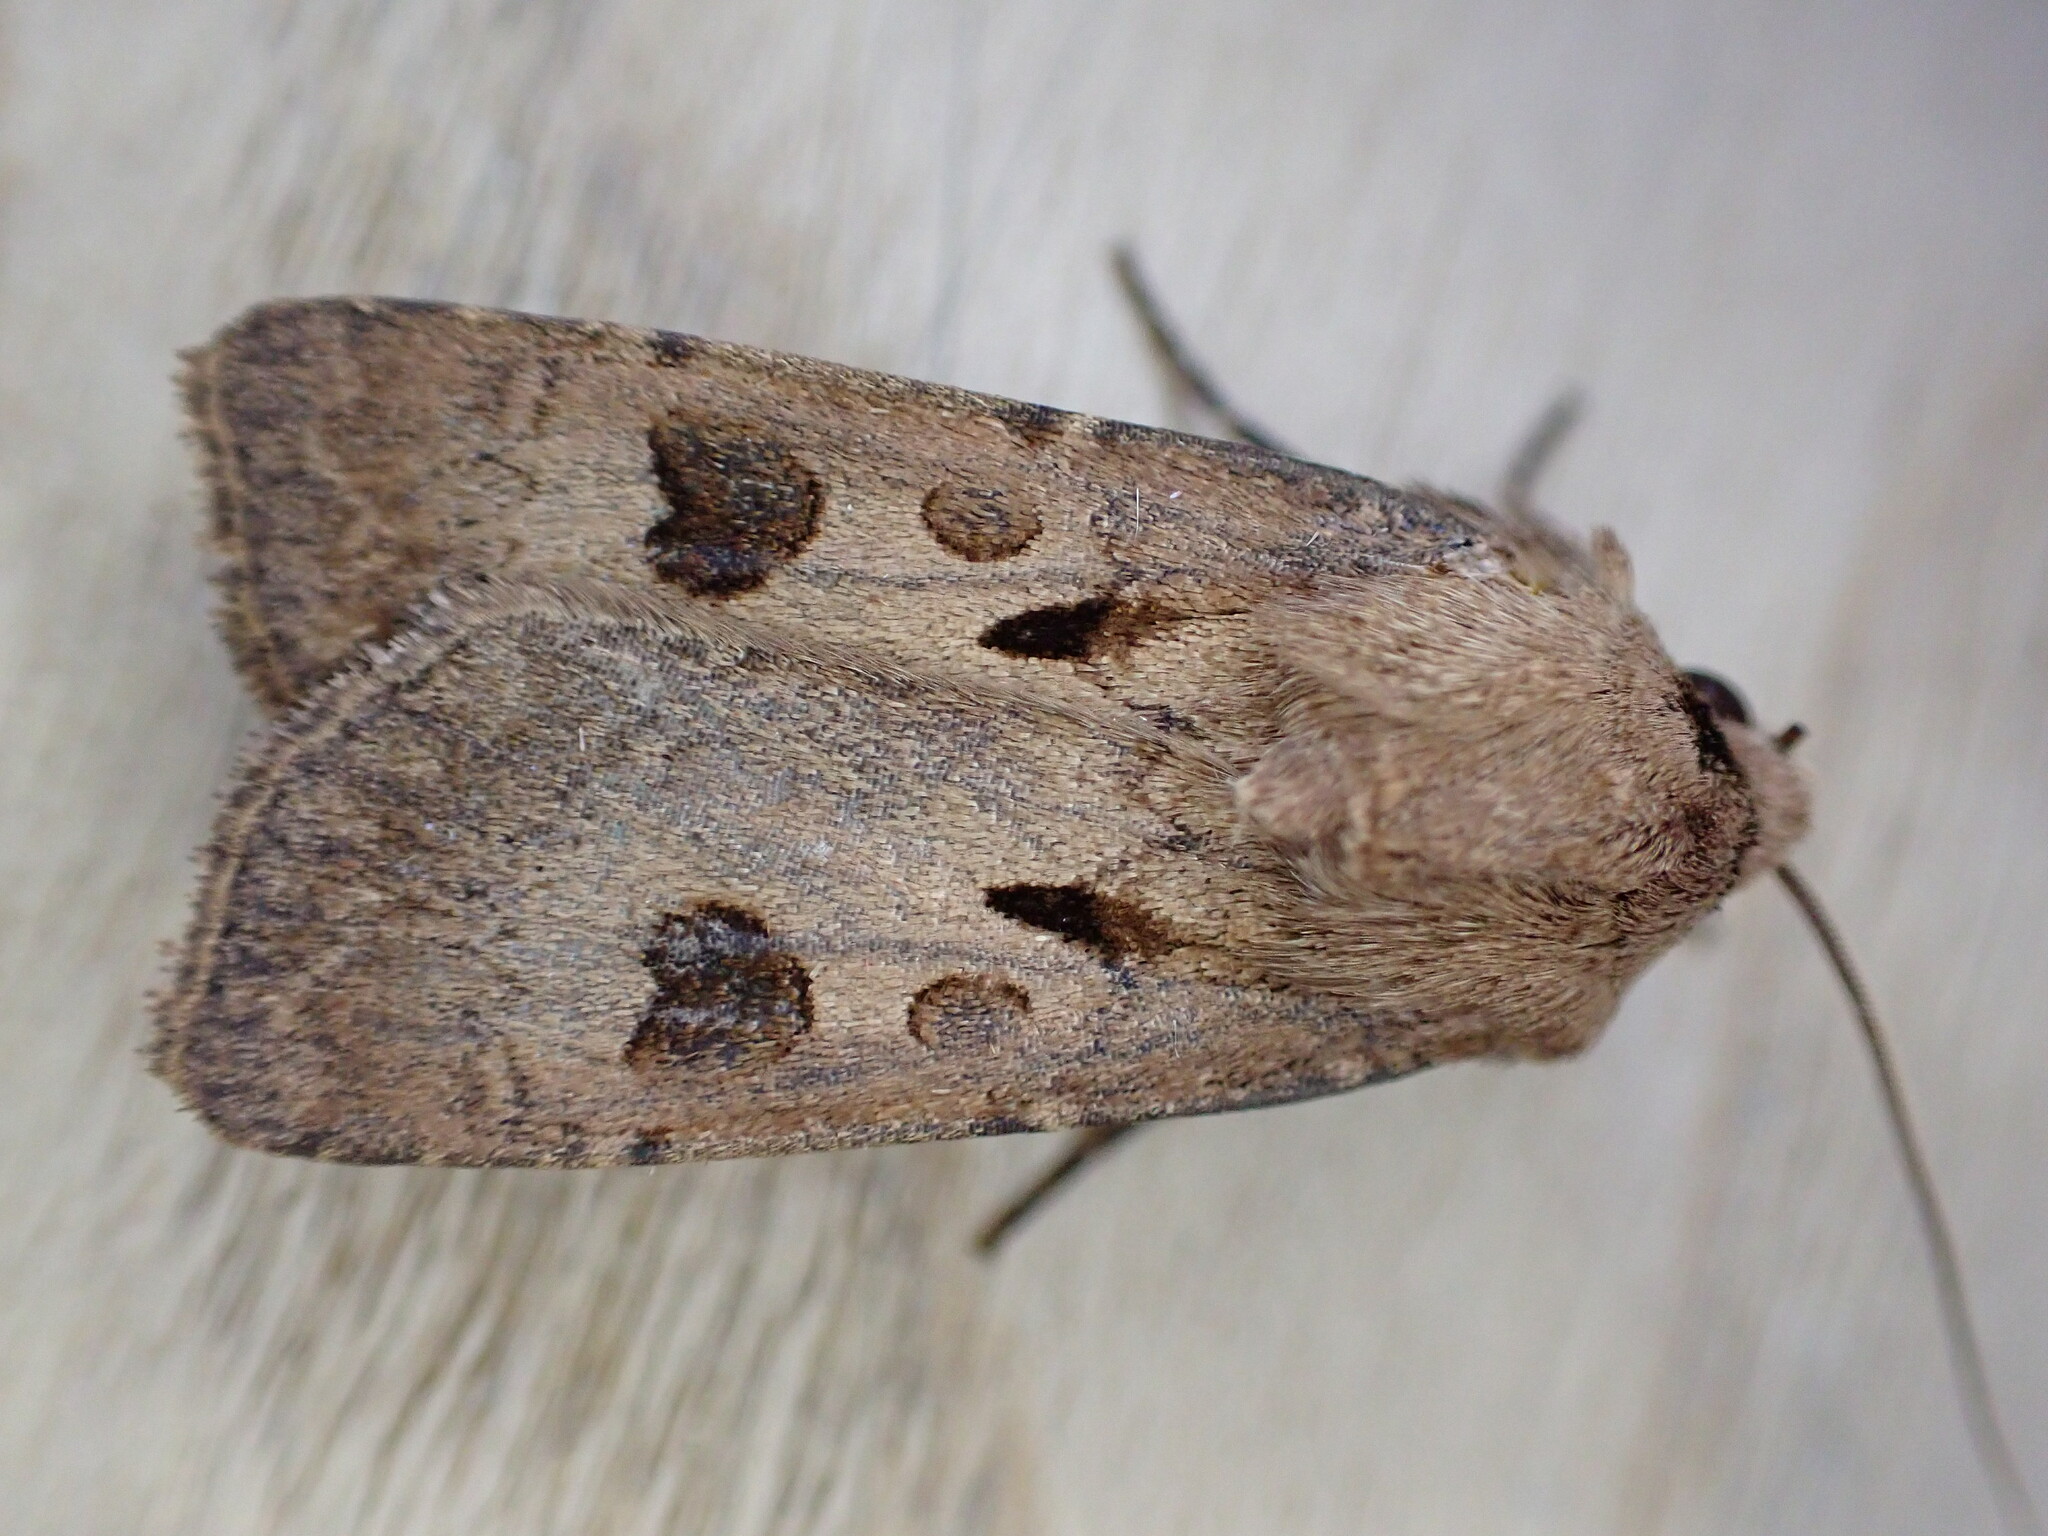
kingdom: Animalia
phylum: Arthropoda
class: Insecta
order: Lepidoptera
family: Noctuidae
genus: Agrotis
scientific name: Agrotis exclamationis
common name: Heart and dart
